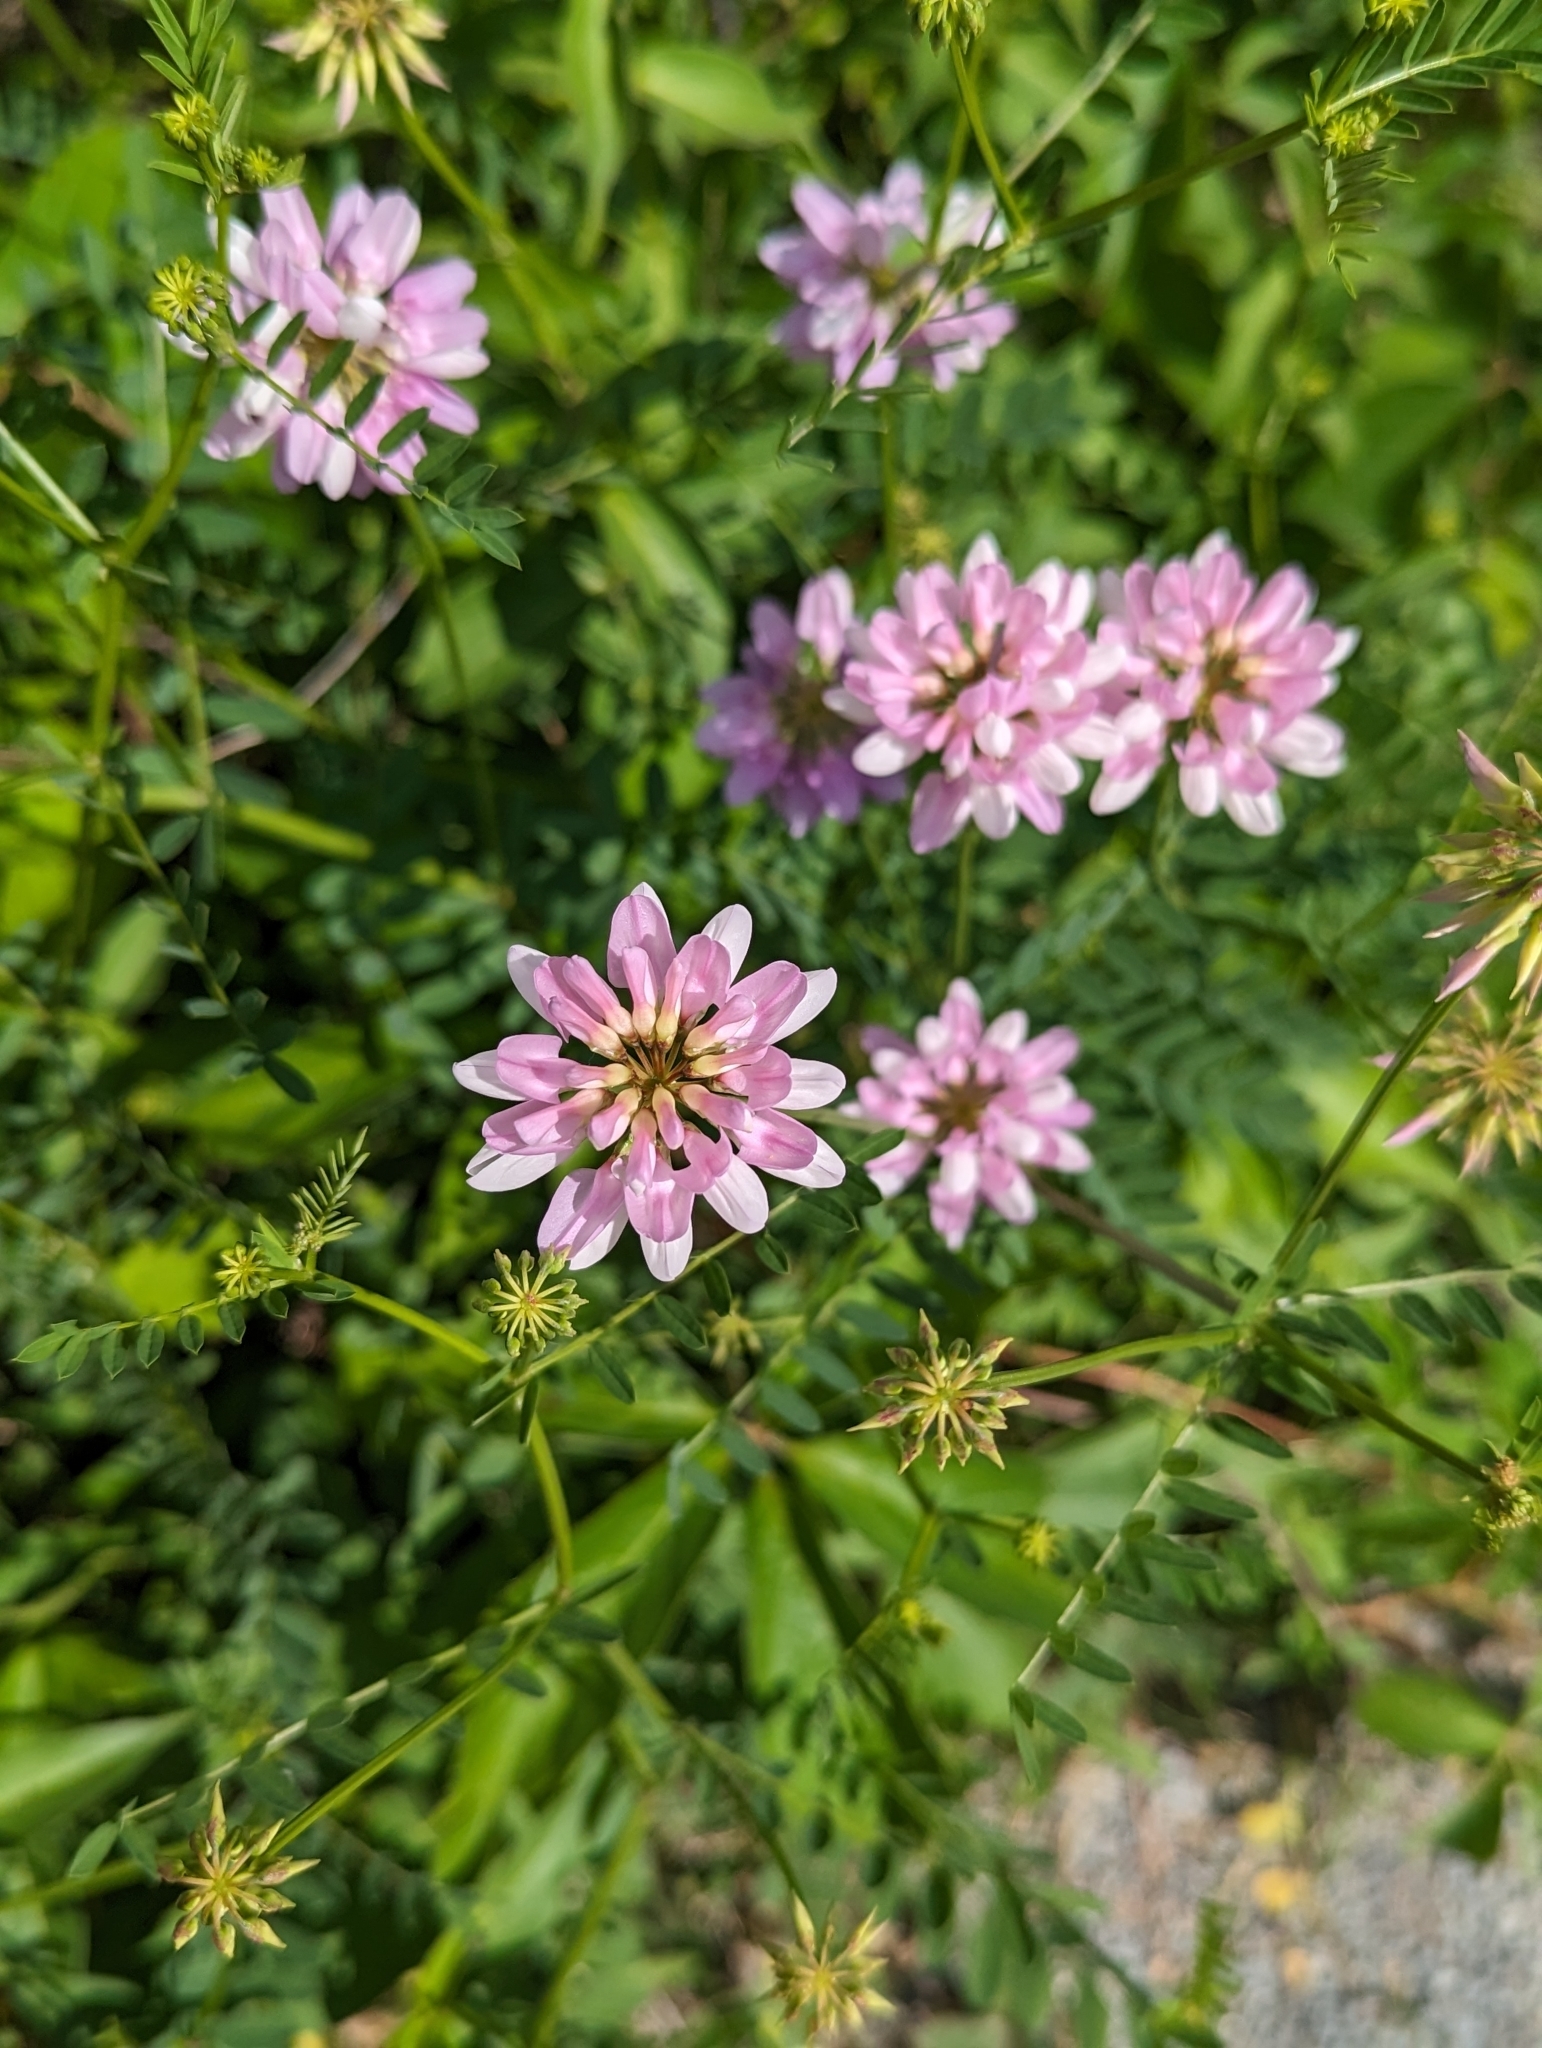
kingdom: Plantae
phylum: Tracheophyta
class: Magnoliopsida
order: Fabales
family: Fabaceae
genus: Coronilla
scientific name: Coronilla varia
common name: Crownvetch
